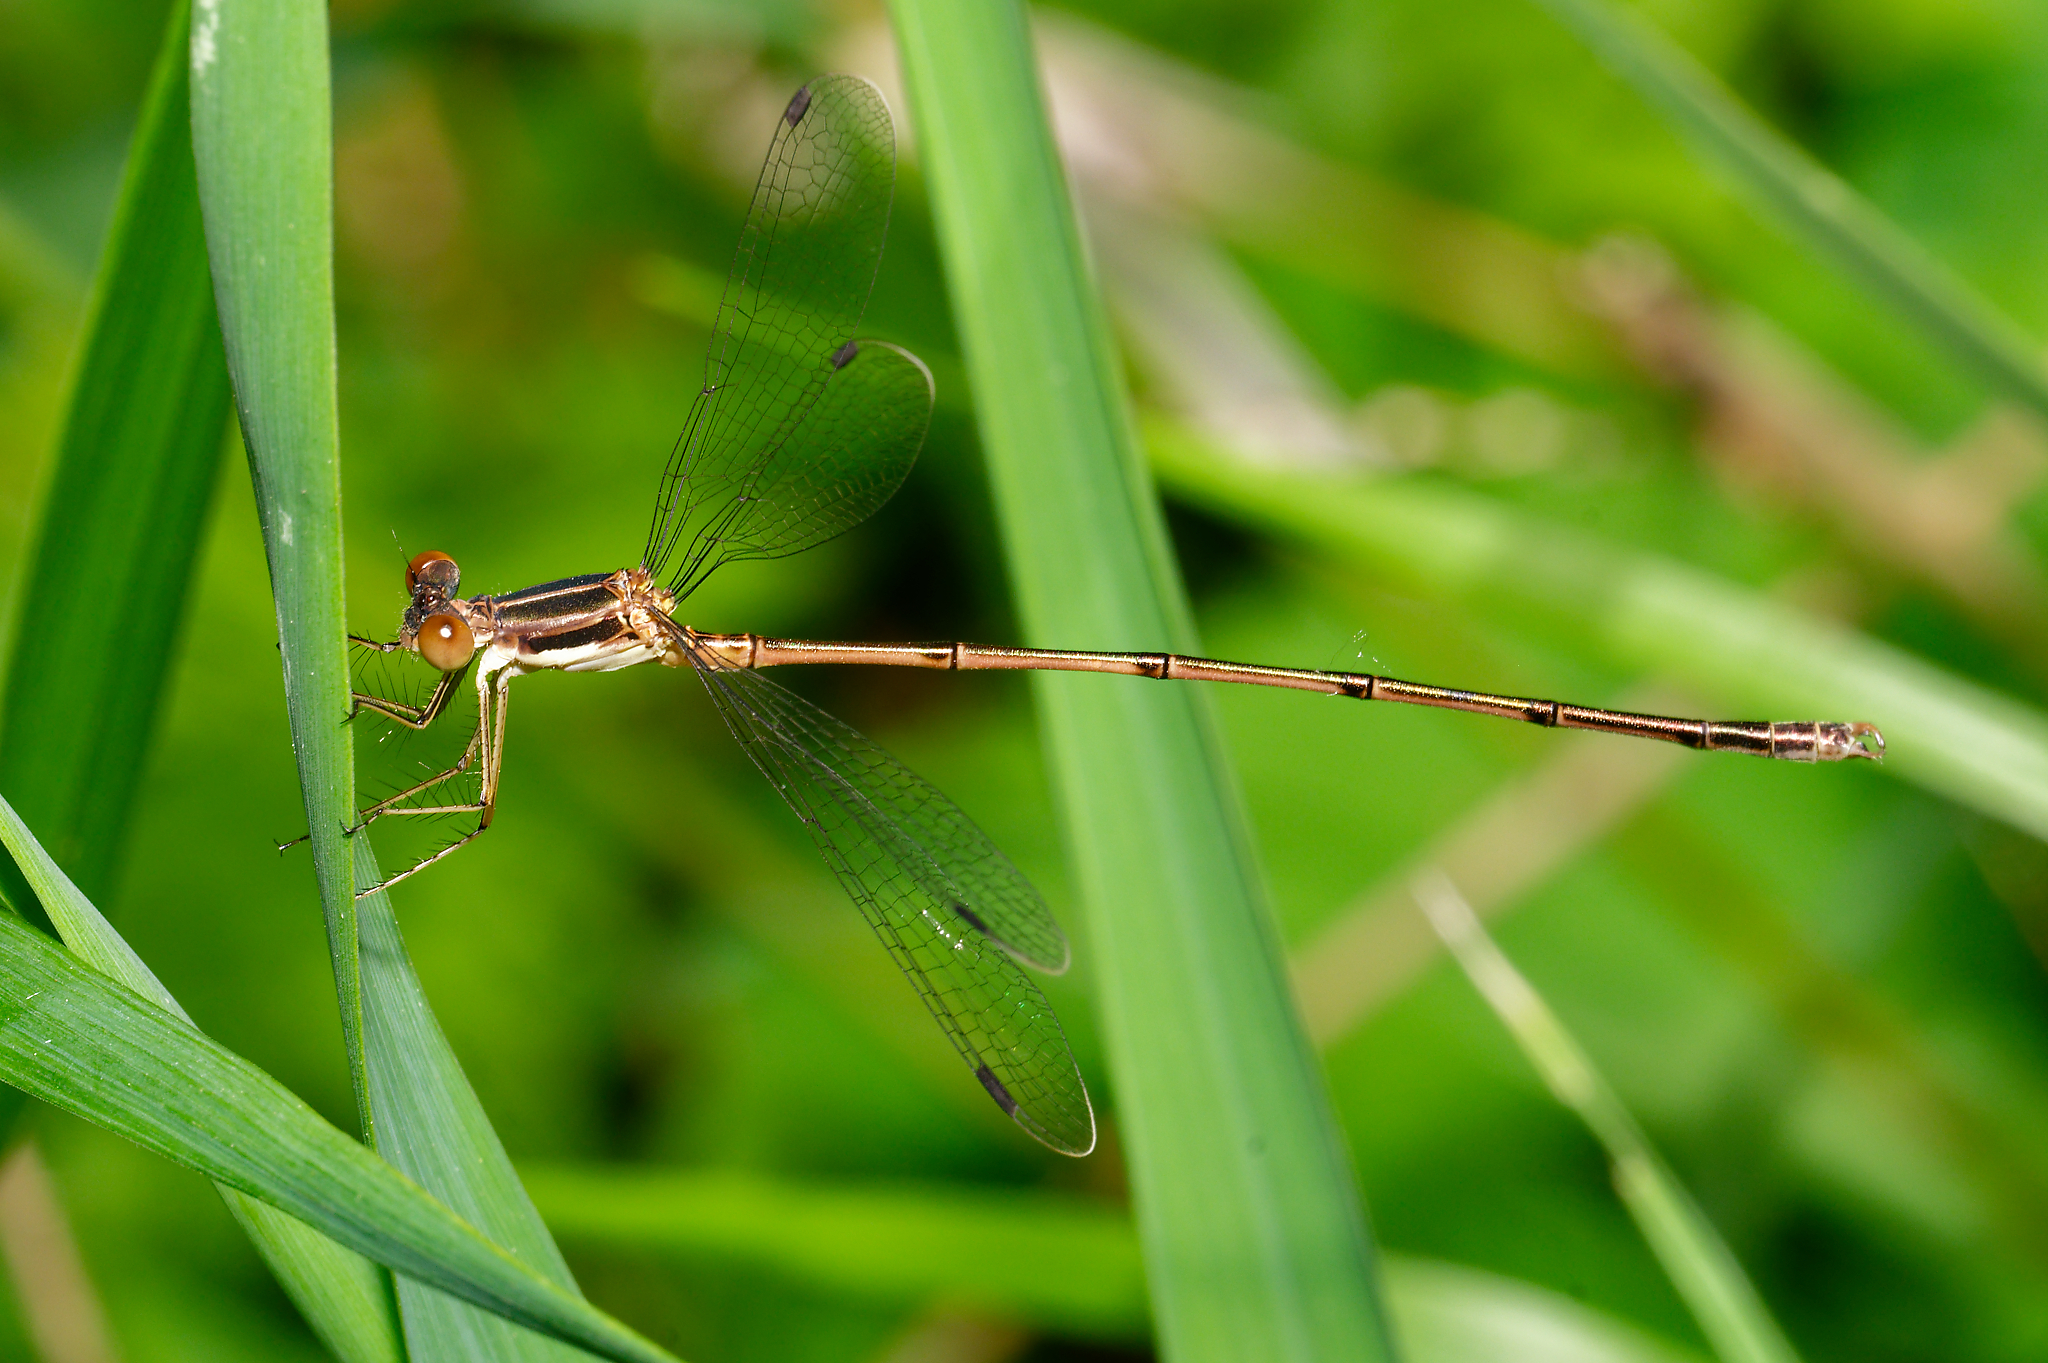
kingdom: Animalia
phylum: Arthropoda
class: Insecta
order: Odonata
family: Lestidae
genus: Lestes
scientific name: Lestes rectangularis
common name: Slender spreadwing
